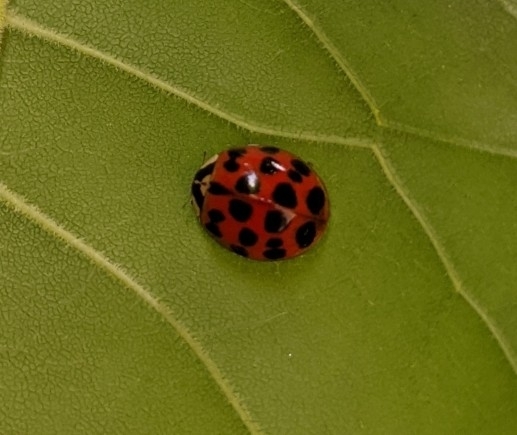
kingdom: Animalia
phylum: Arthropoda
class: Insecta
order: Coleoptera
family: Coccinellidae
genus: Harmonia
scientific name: Harmonia axyridis
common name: Harlequin ladybird
